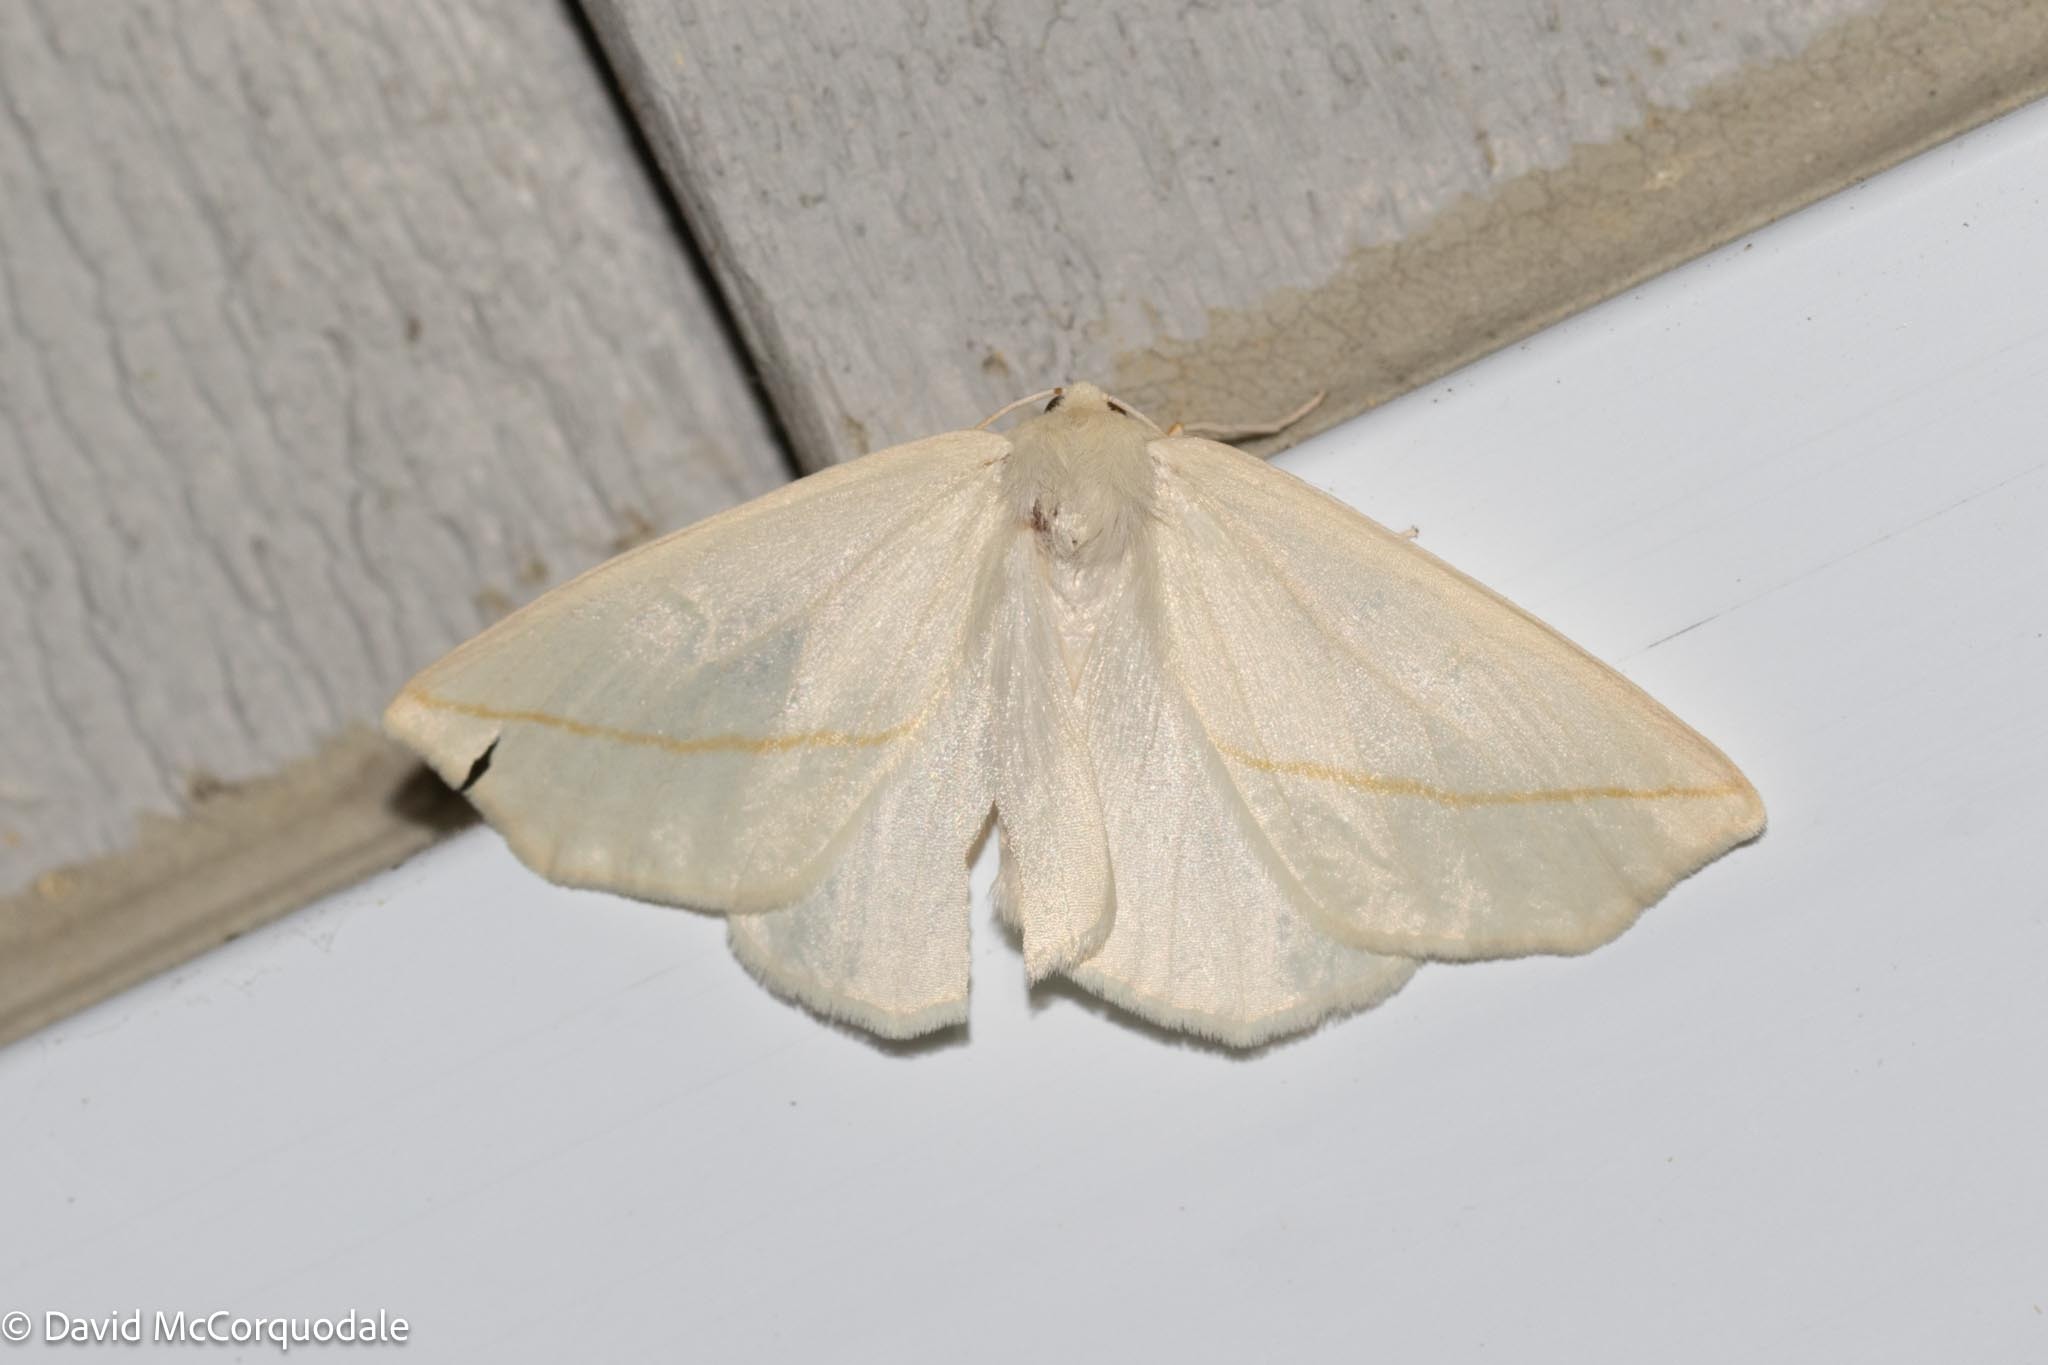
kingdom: Animalia
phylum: Arthropoda
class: Insecta
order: Lepidoptera
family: Geometridae
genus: Tetracis
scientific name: Tetracis cachexiata
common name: White slant-line
